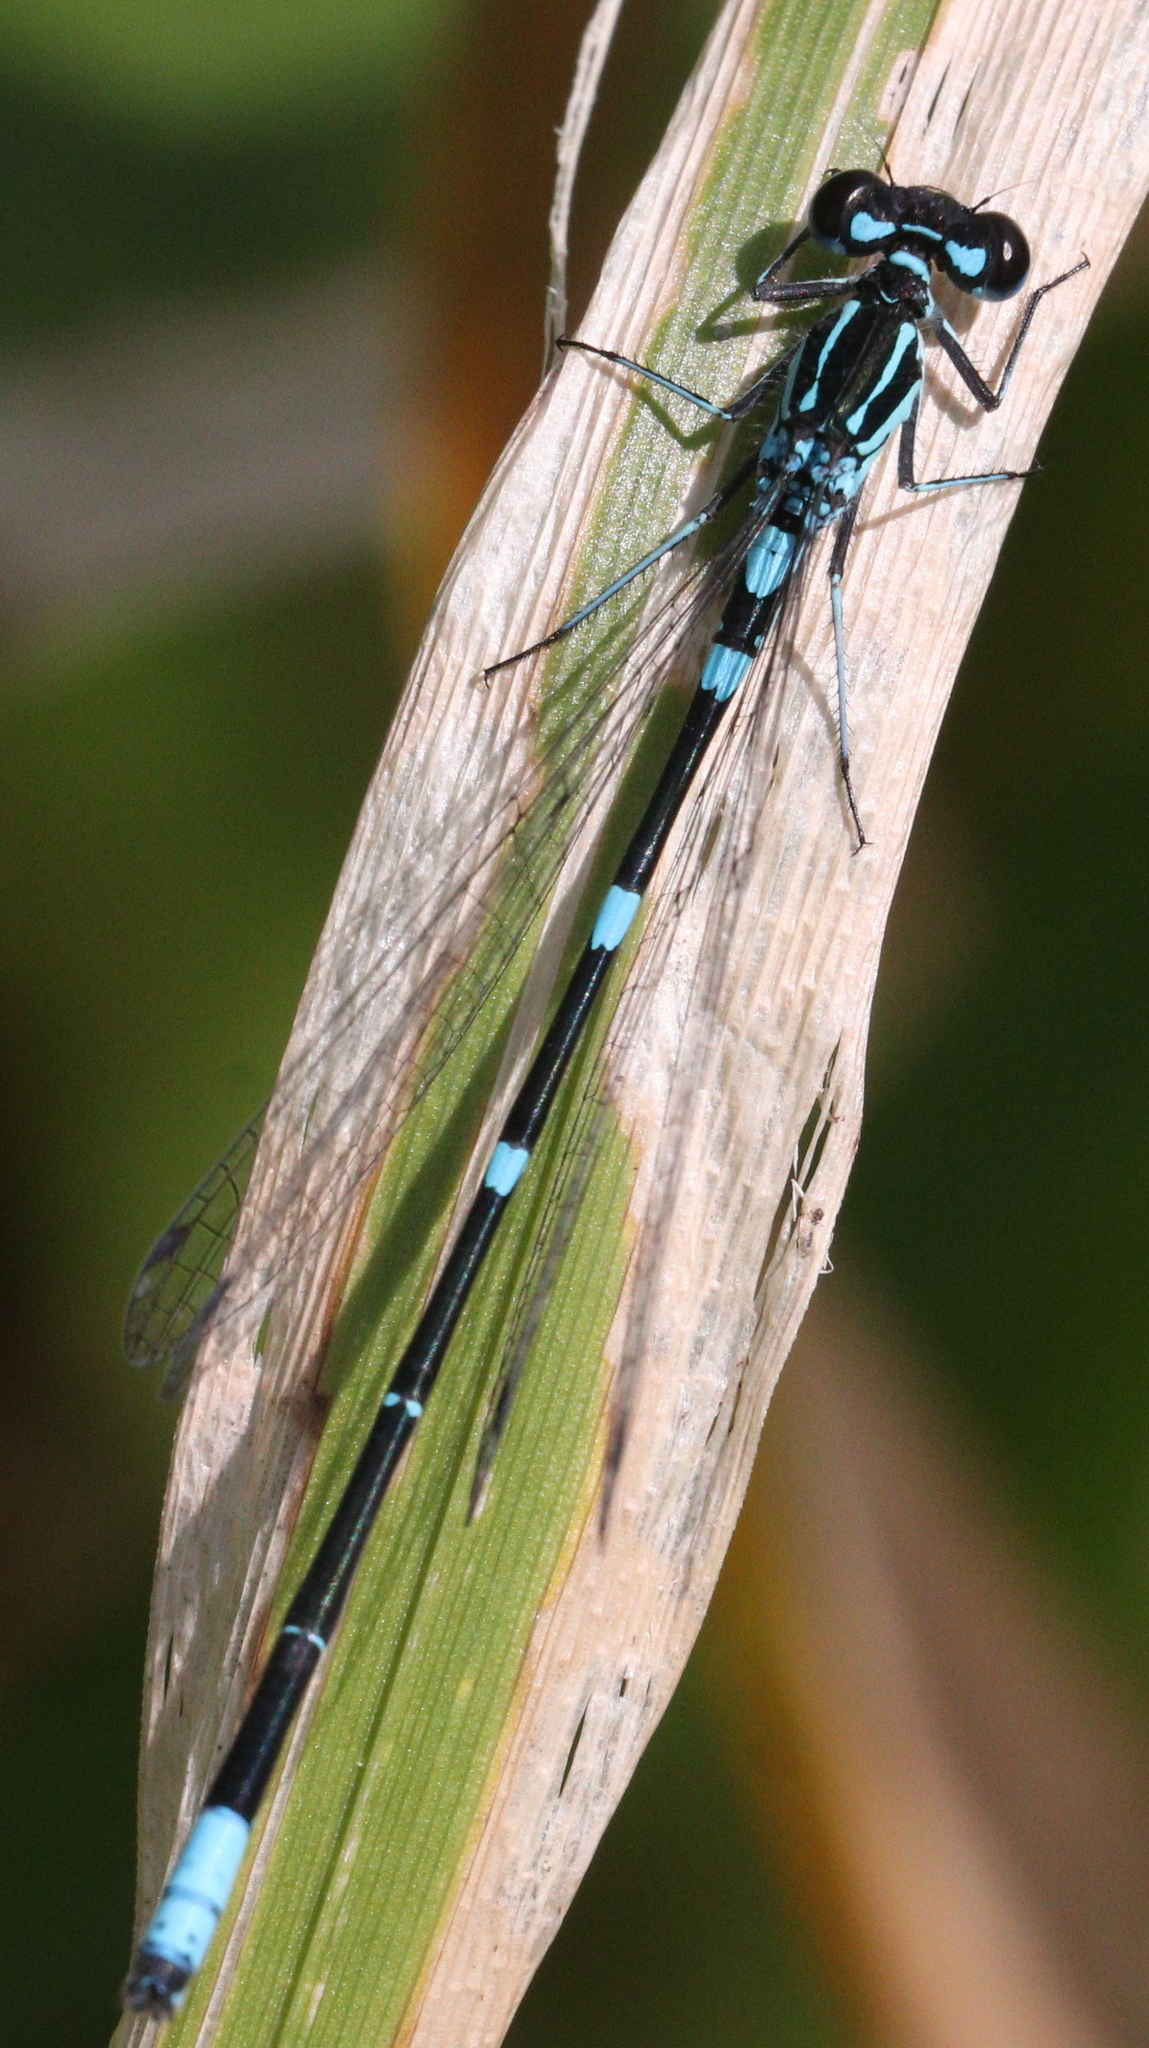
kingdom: Animalia
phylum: Arthropoda
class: Insecta
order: Odonata
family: Coenagrionidae
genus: Coenagrion
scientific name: Coenagrion pulchellum
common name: Variable bluet
